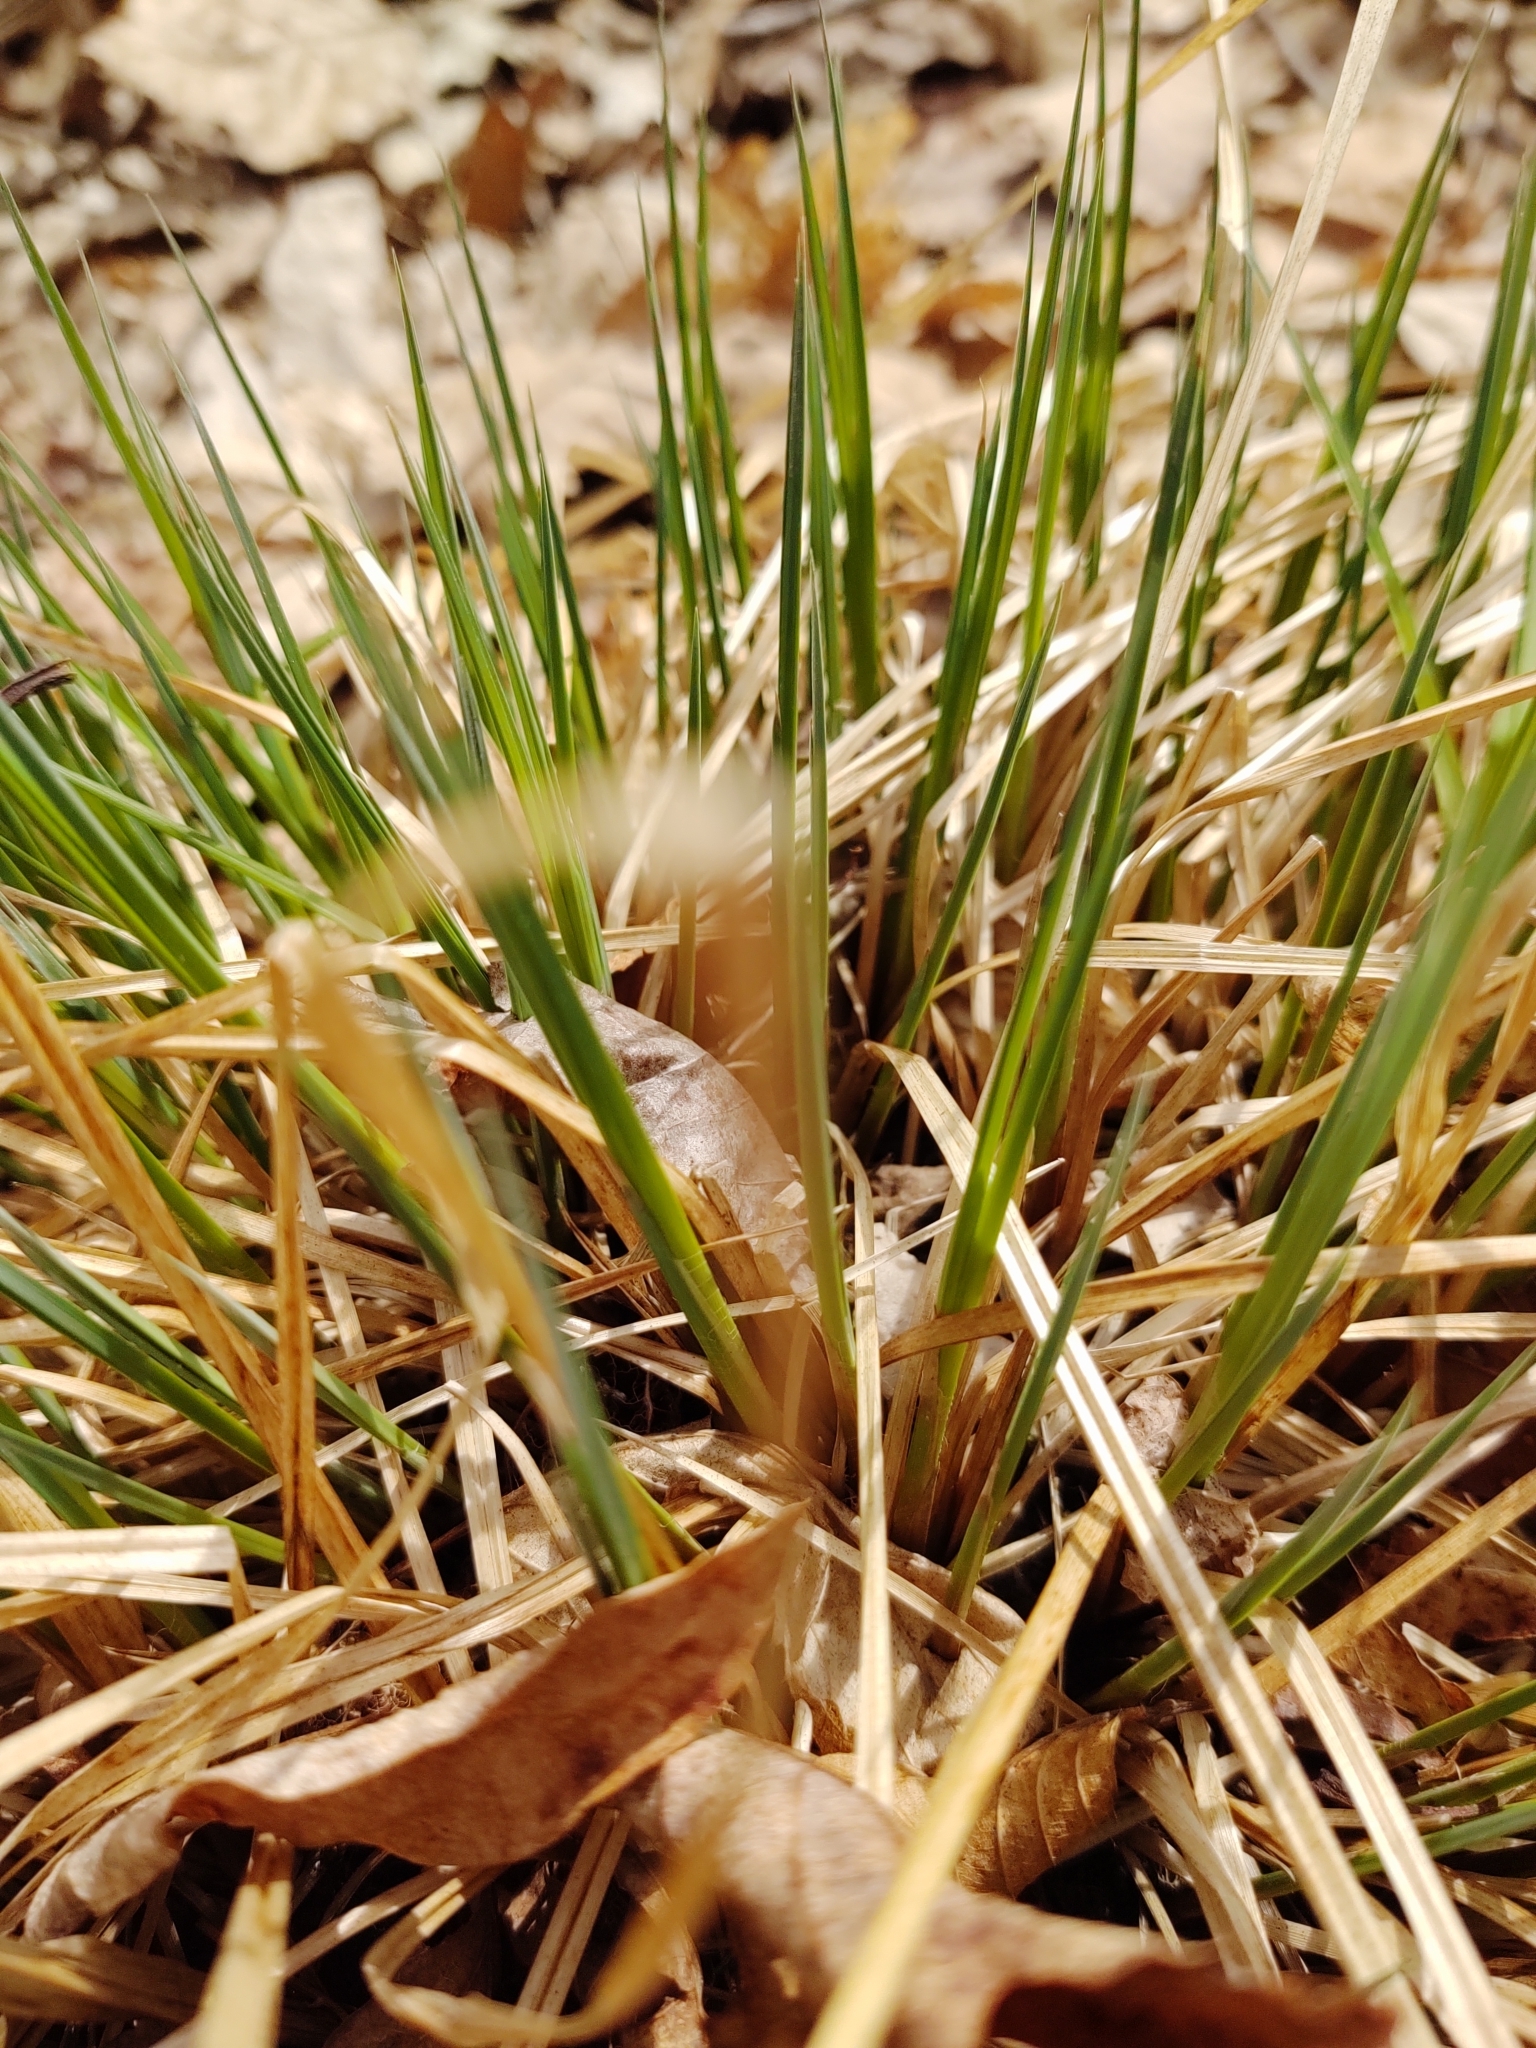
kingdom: Plantae
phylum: Tracheophyta
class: Liliopsida
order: Poales
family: Cyperaceae
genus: Carex
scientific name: Carex stricta
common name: Hummock sedge
